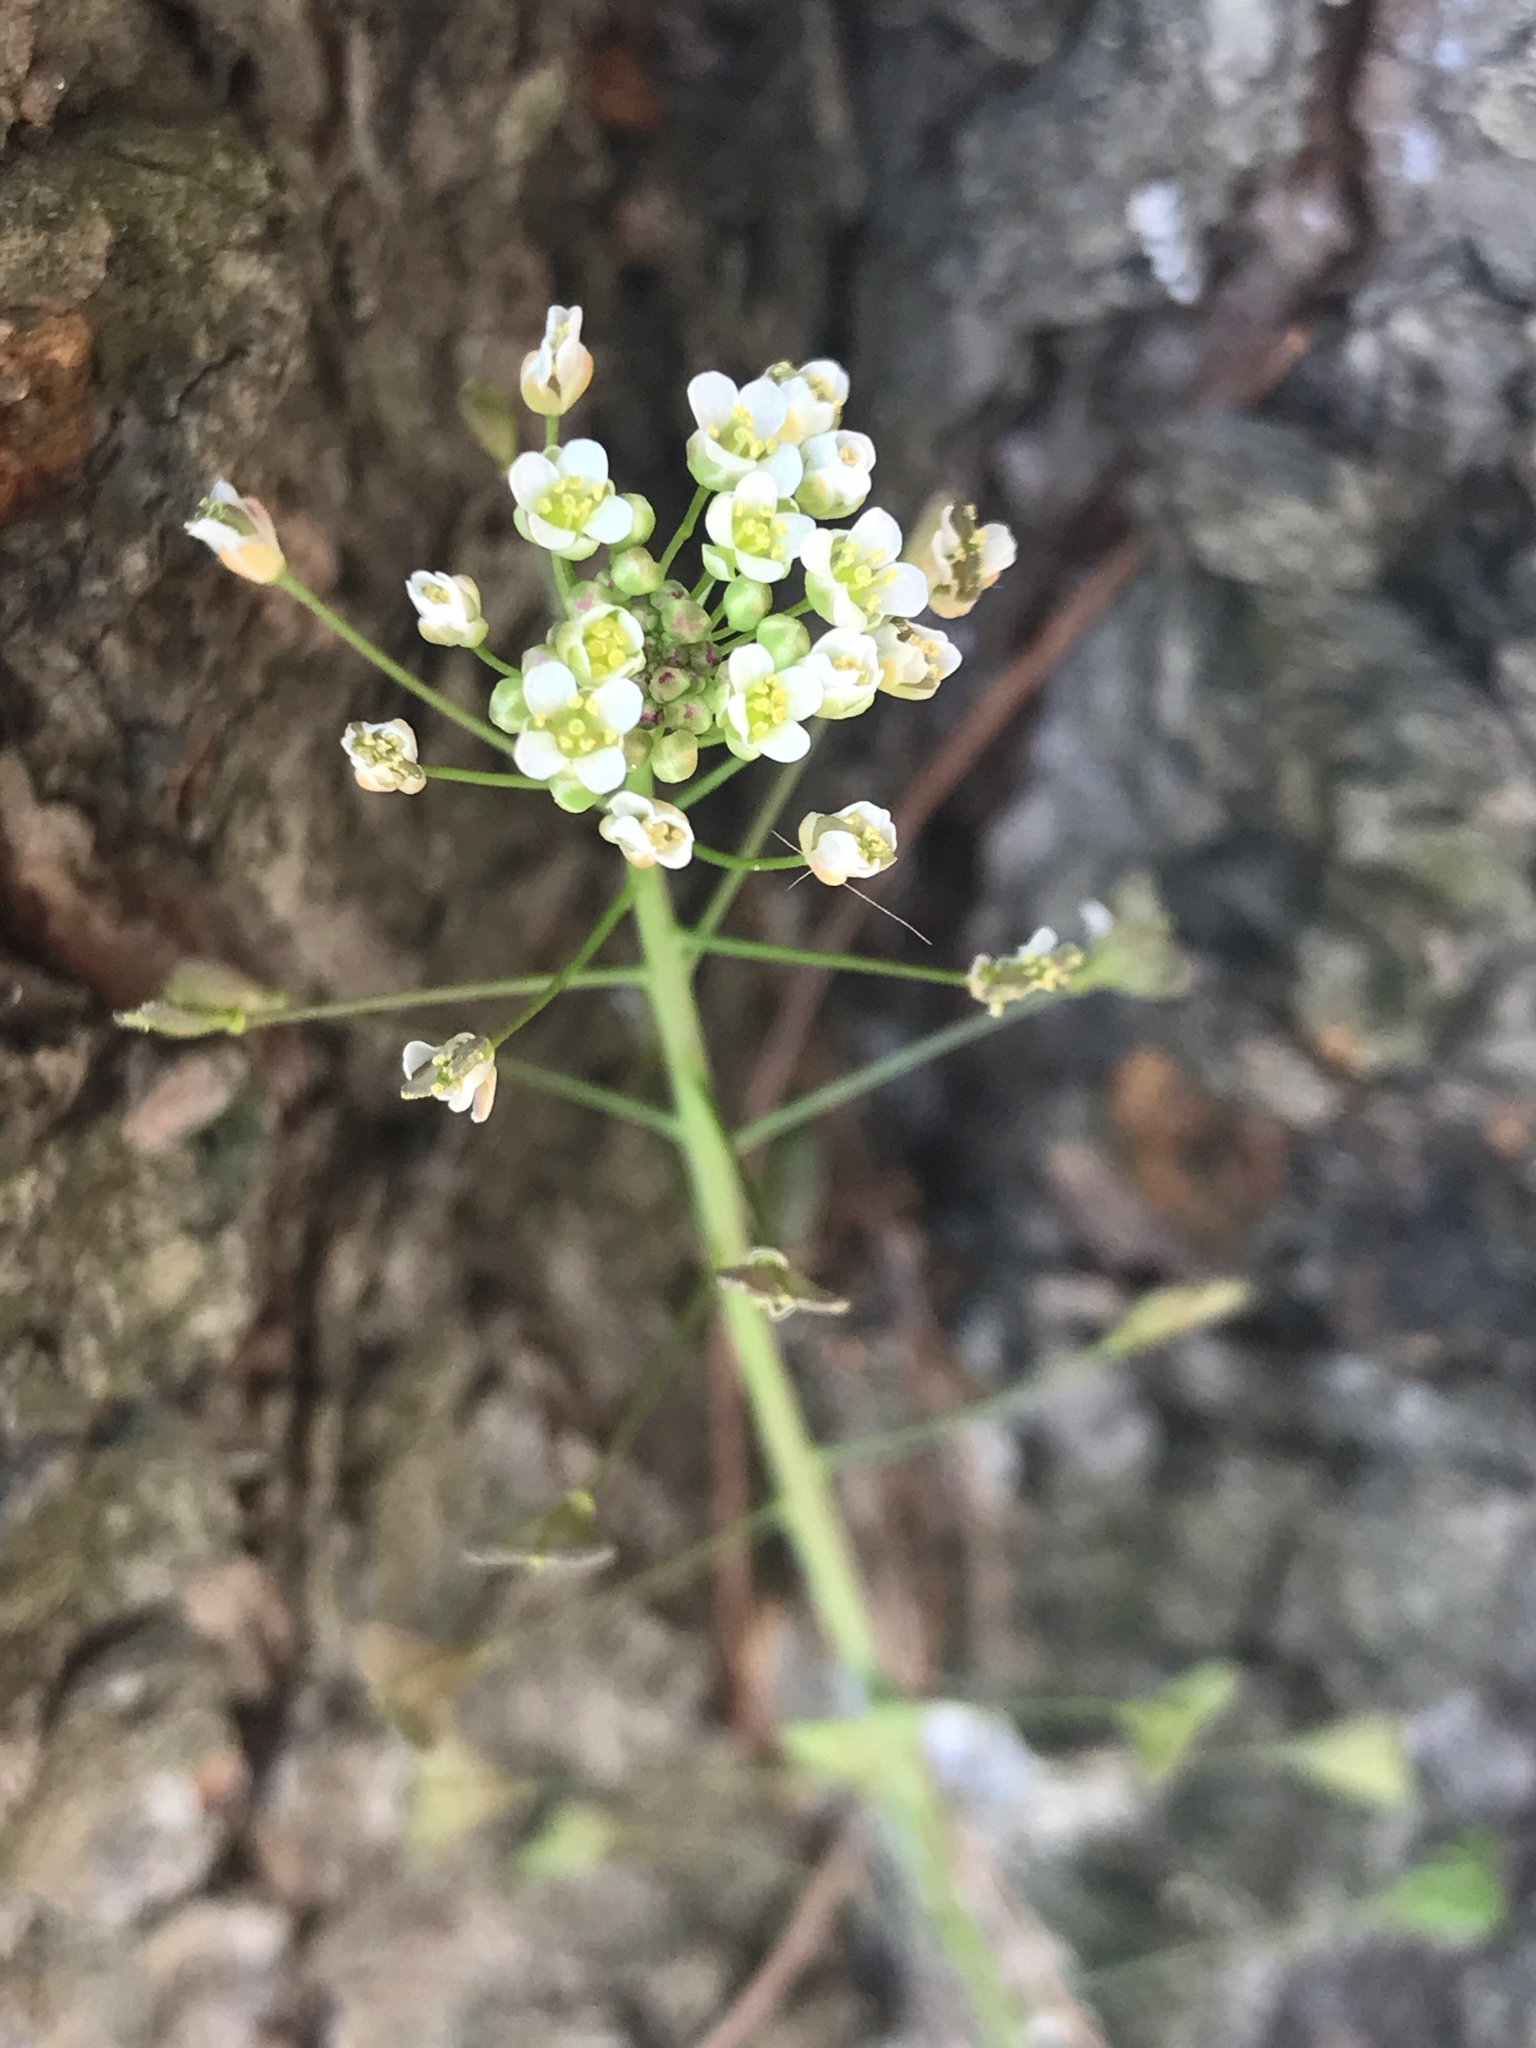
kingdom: Plantae
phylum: Tracheophyta
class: Magnoliopsida
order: Brassicales
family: Brassicaceae
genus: Capsella
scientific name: Capsella bursa-pastoris
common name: Shepherd's purse
